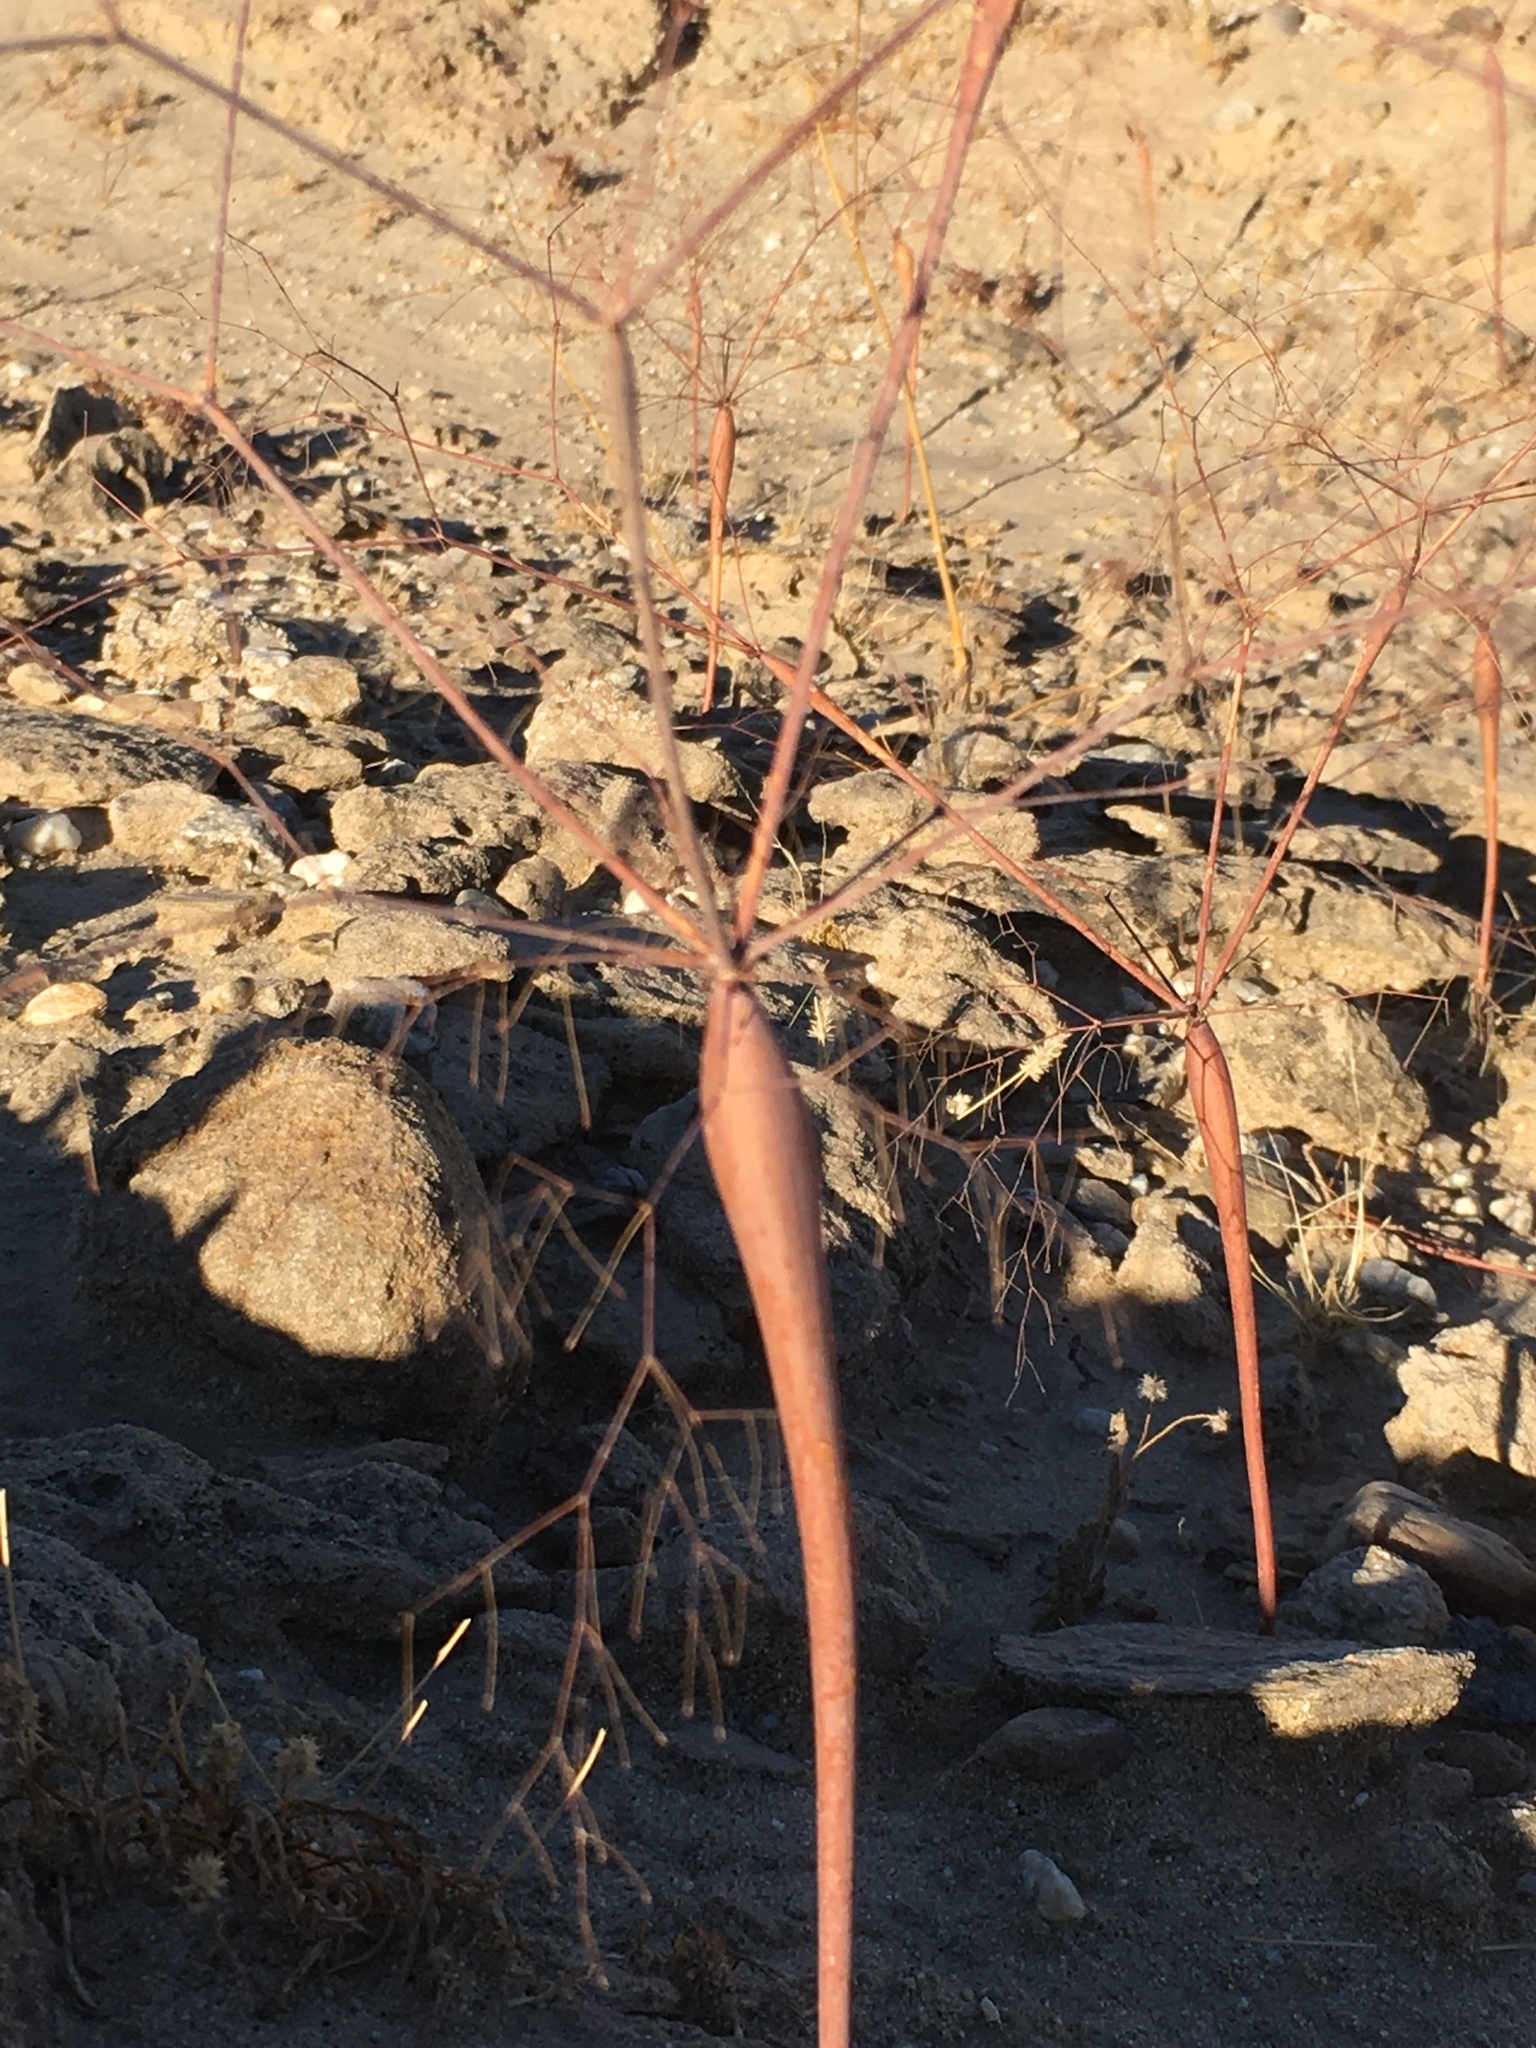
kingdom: Plantae
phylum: Tracheophyta
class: Magnoliopsida
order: Caryophyllales
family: Polygonaceae
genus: Eriogonum
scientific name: Eriogonum trichopes
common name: Little desert trumpet
